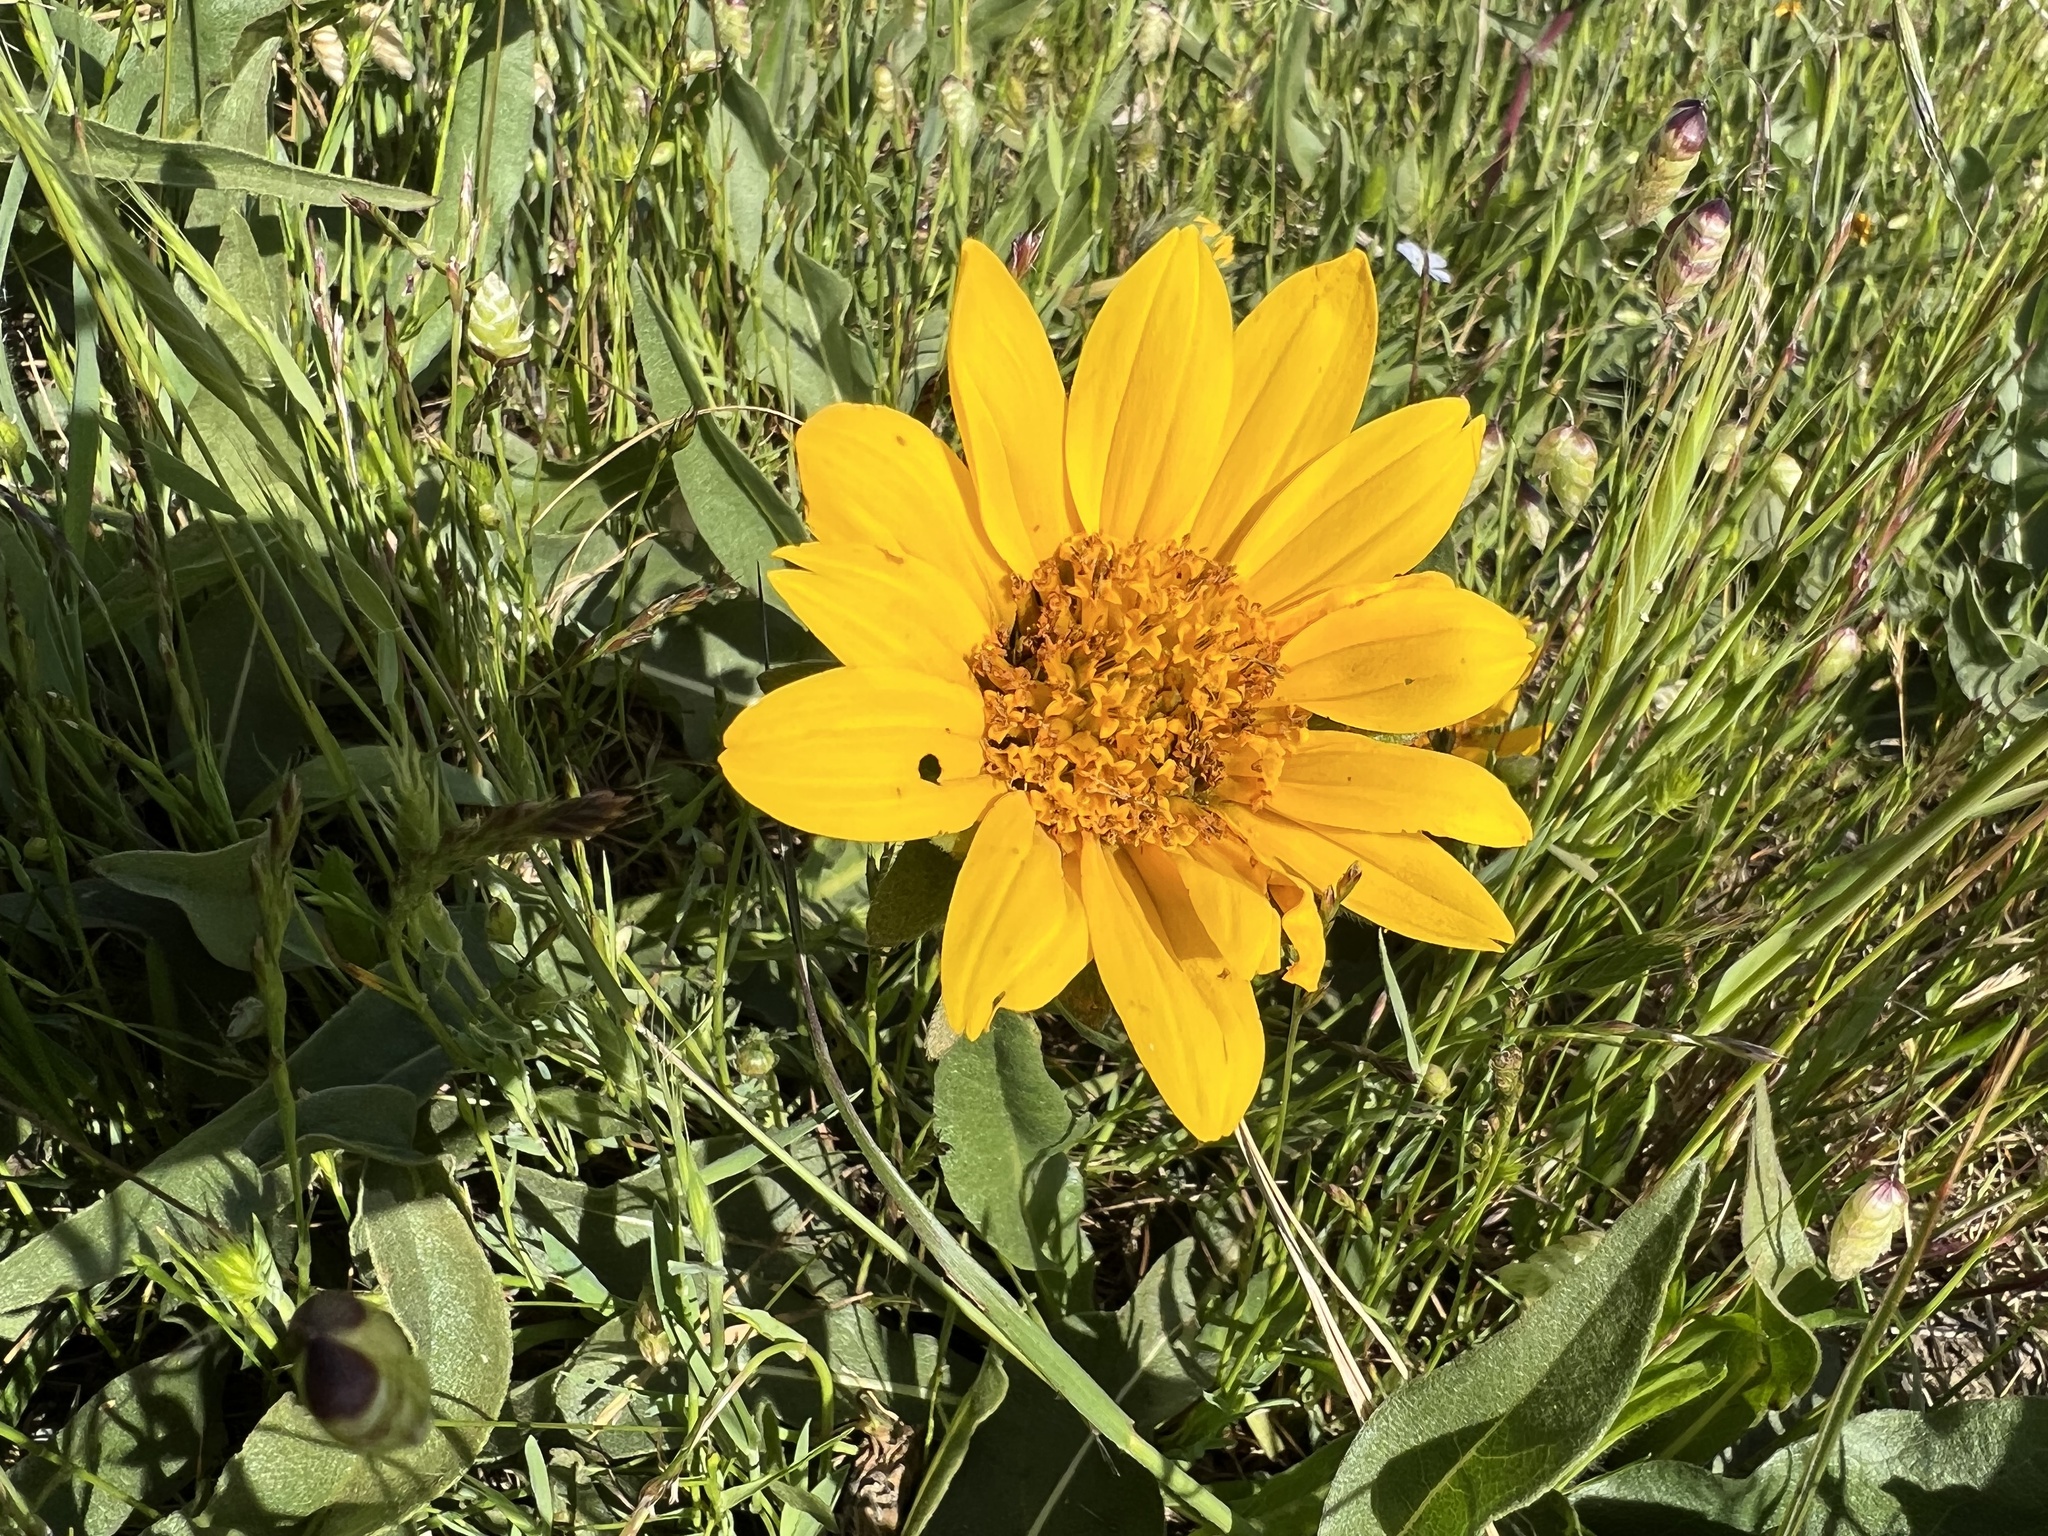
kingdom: Plantae
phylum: Tracheophyta
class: Magnoliopsida
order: Asterales
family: Asteraceae
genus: Wyethia
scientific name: Wyethia angustifolia
